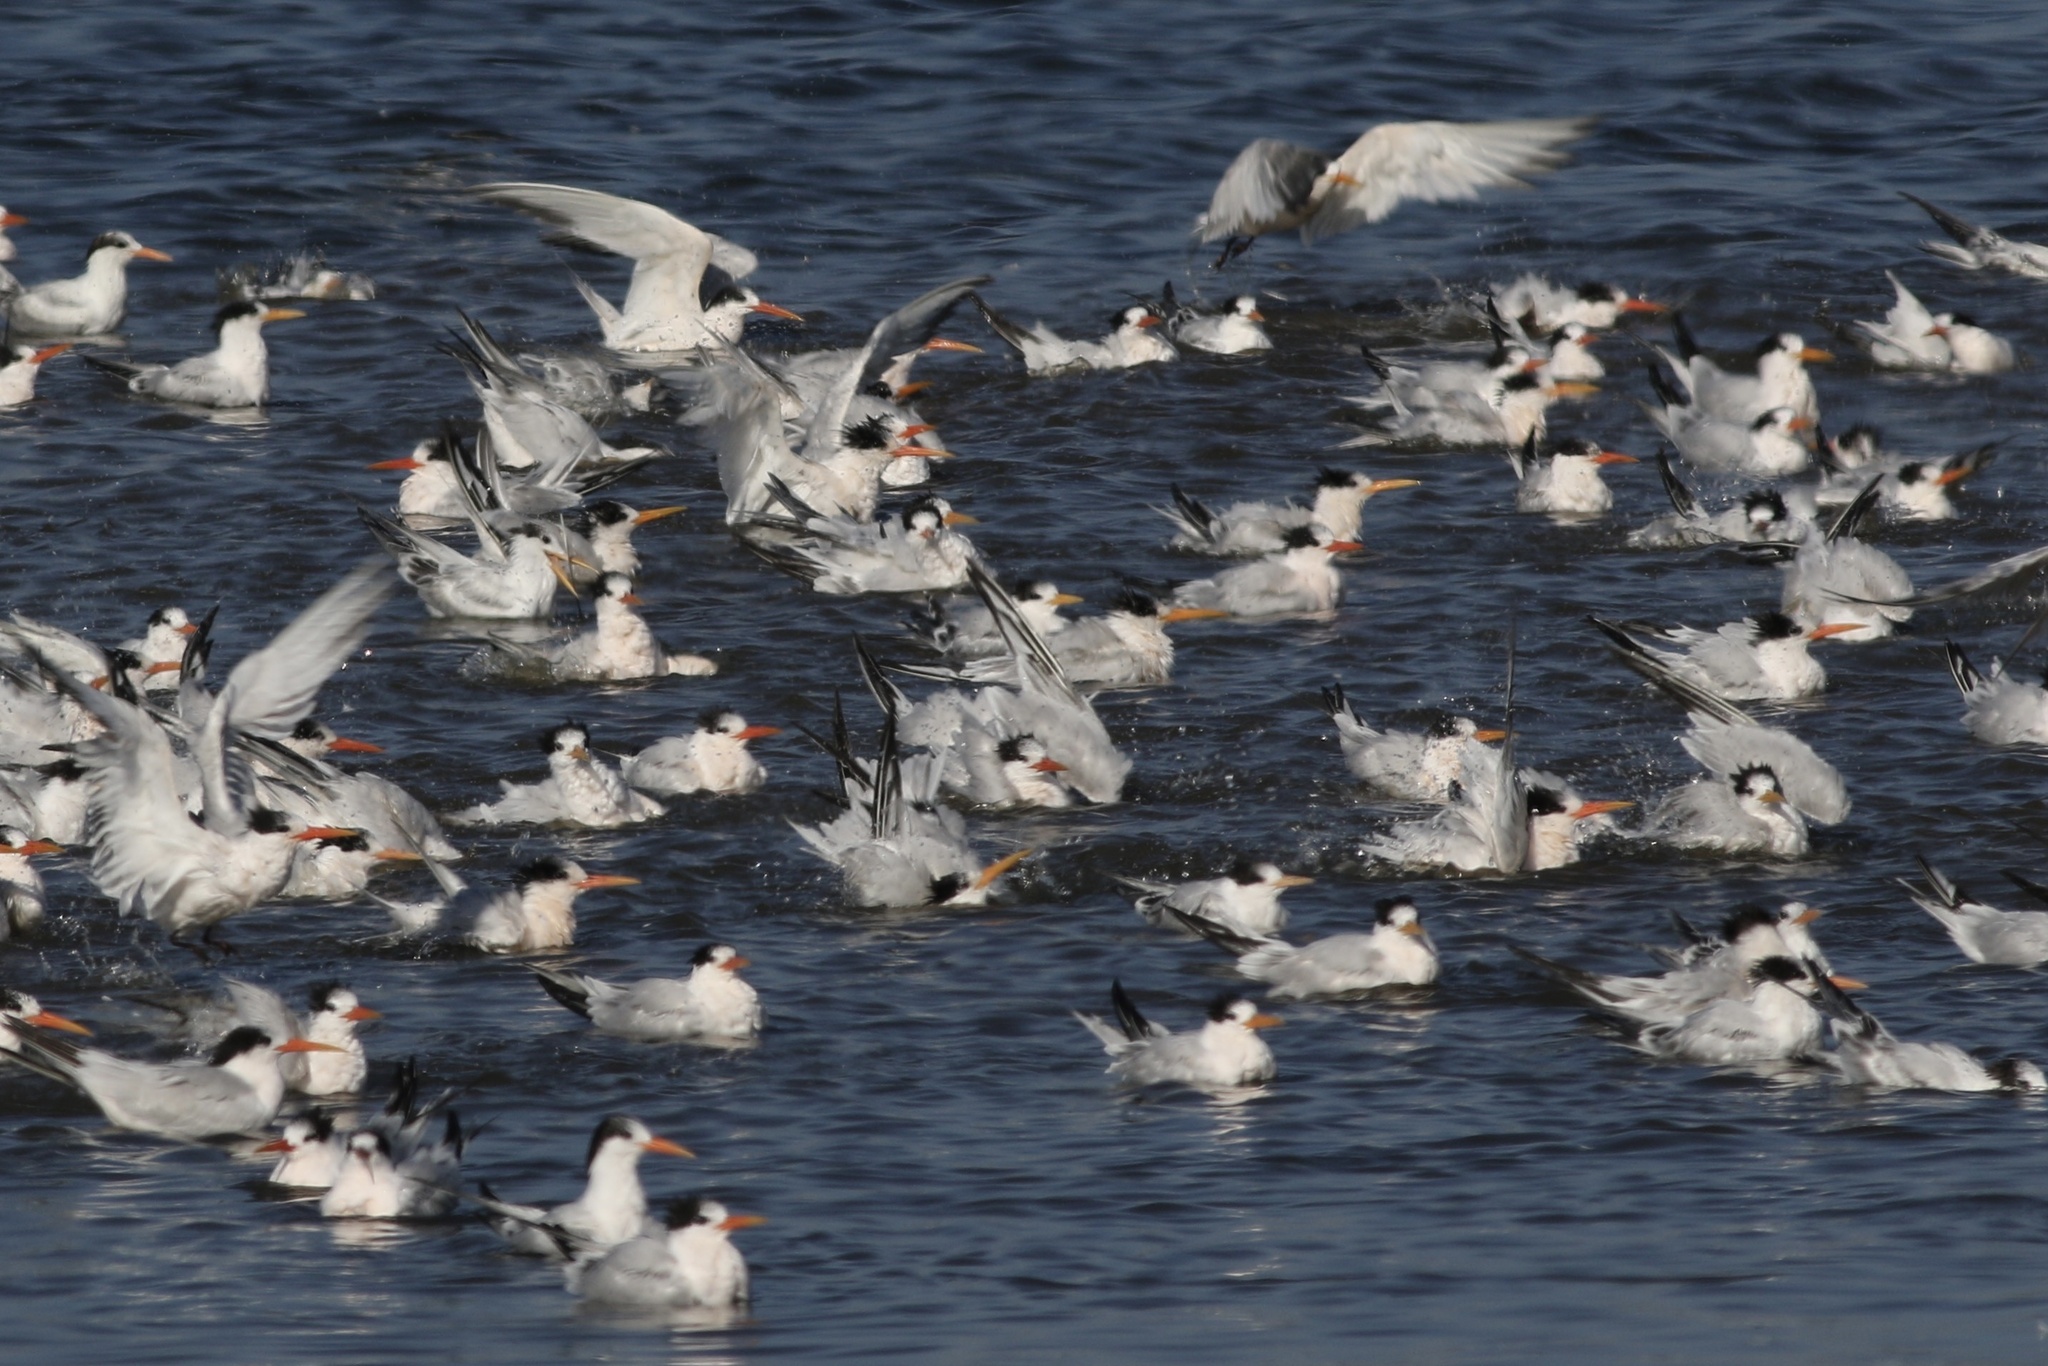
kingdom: Animalia
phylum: Chordata
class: Aves
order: Charadriiformes
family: Laridae
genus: Thalasseus
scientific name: Thalasseus elegans
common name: Elegant tern
